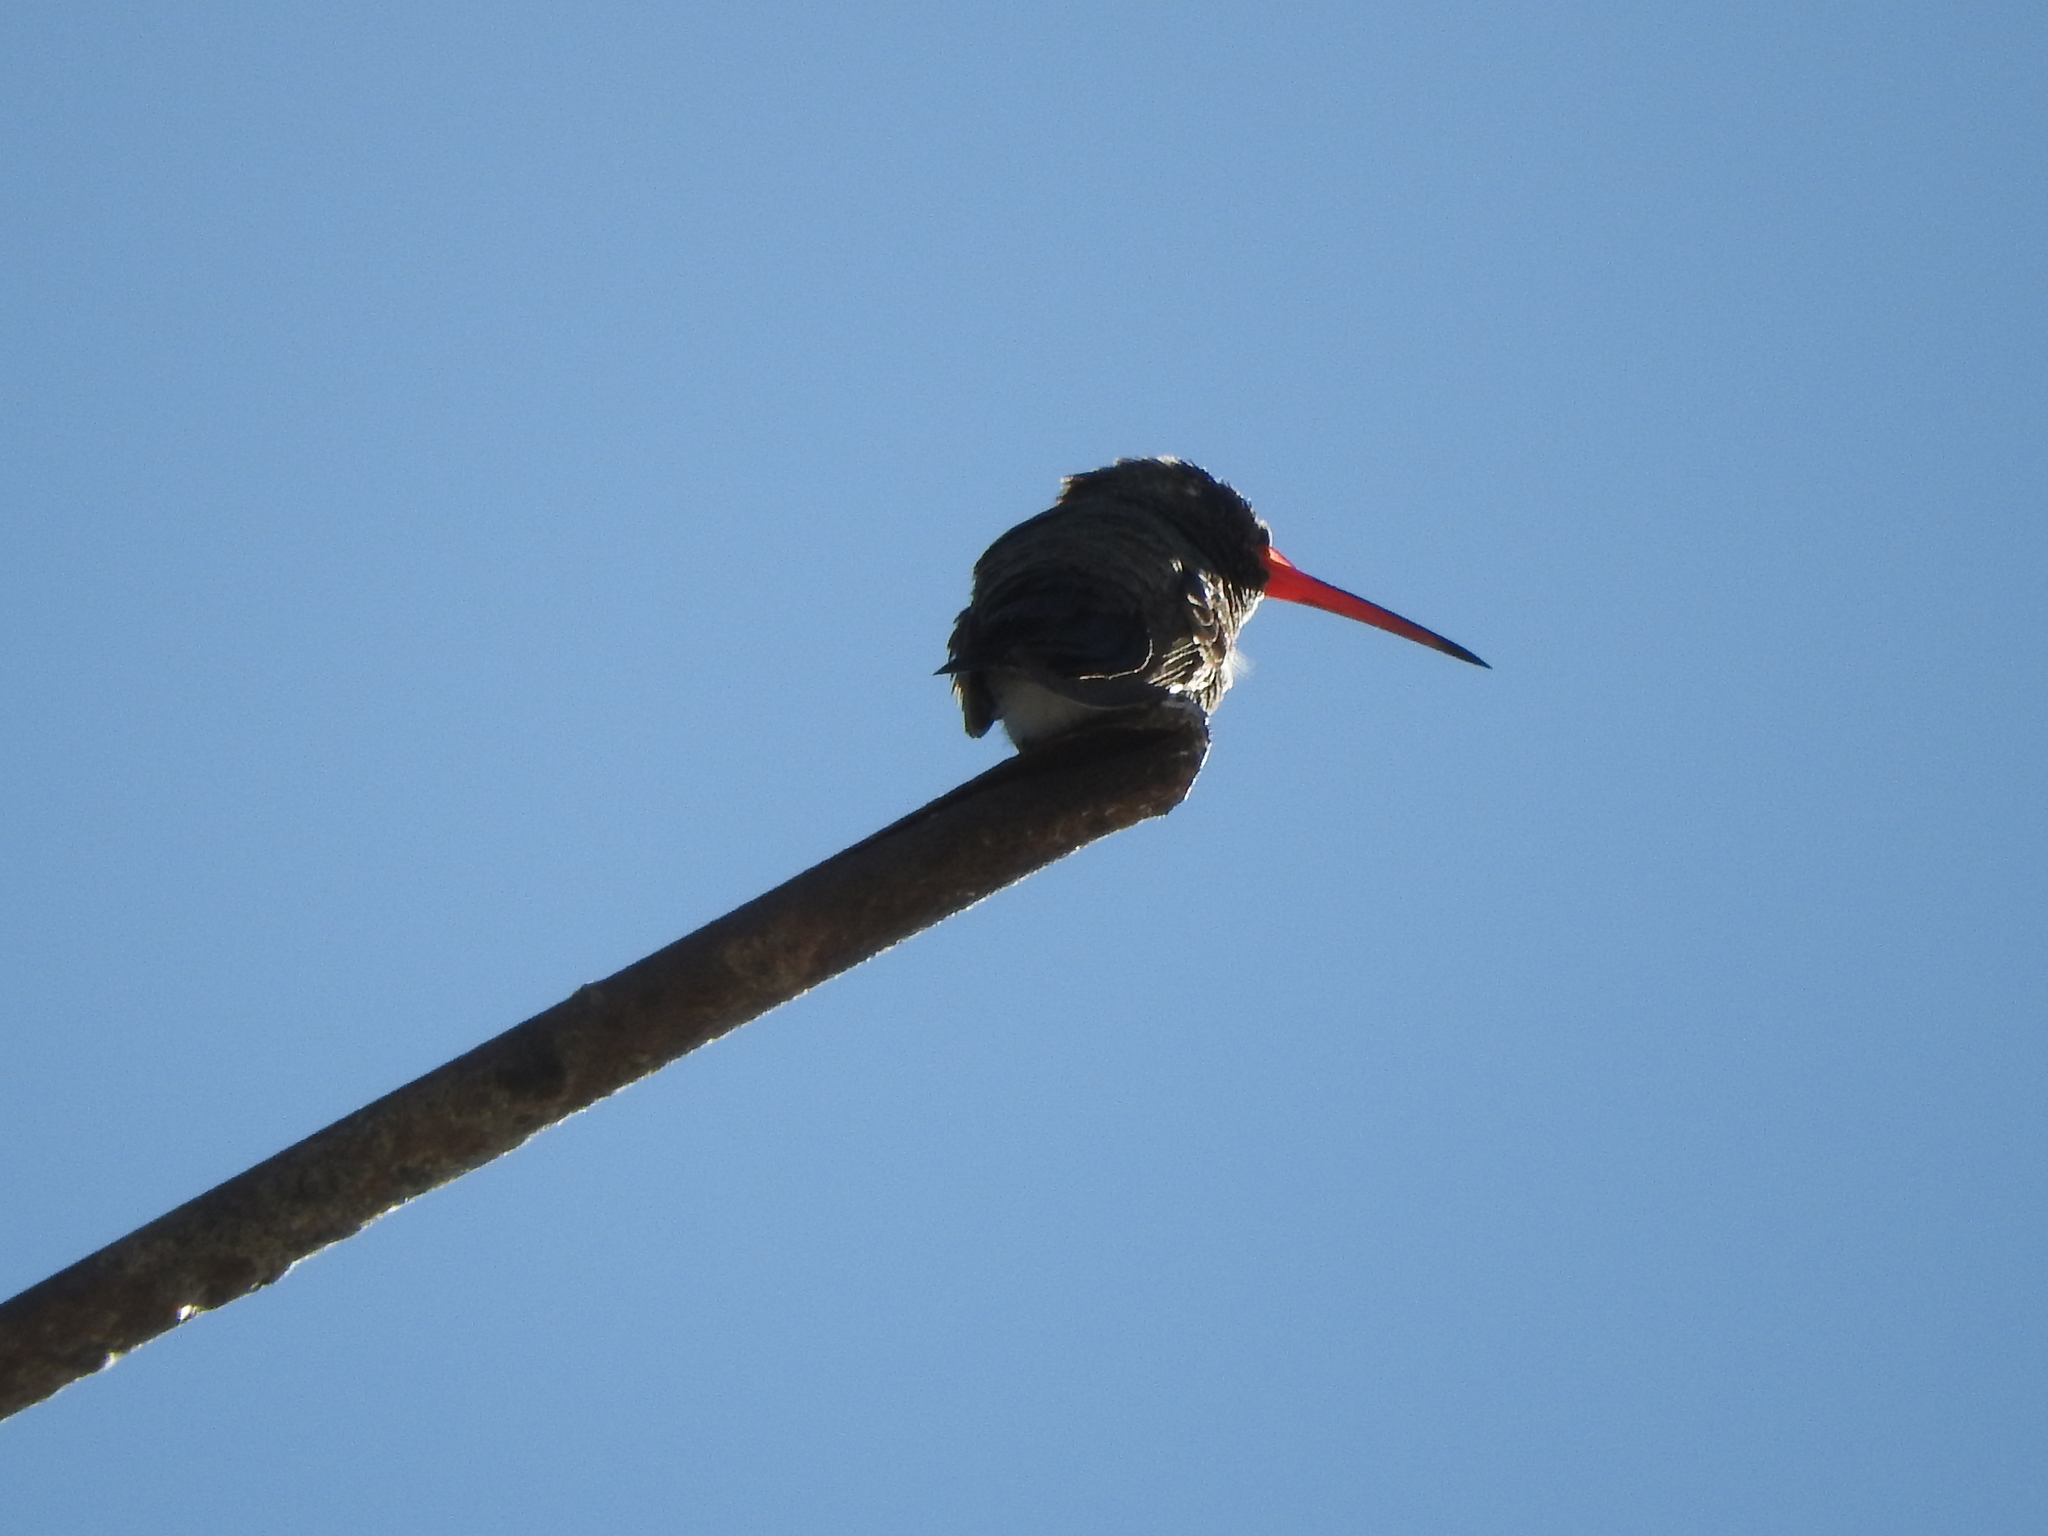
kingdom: Animalia
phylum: Chordata
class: Aves
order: Apodiformes
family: Trochilidae
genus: Cynanthus
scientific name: Cynanthus latirostris
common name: Broad-billed hummingbird
